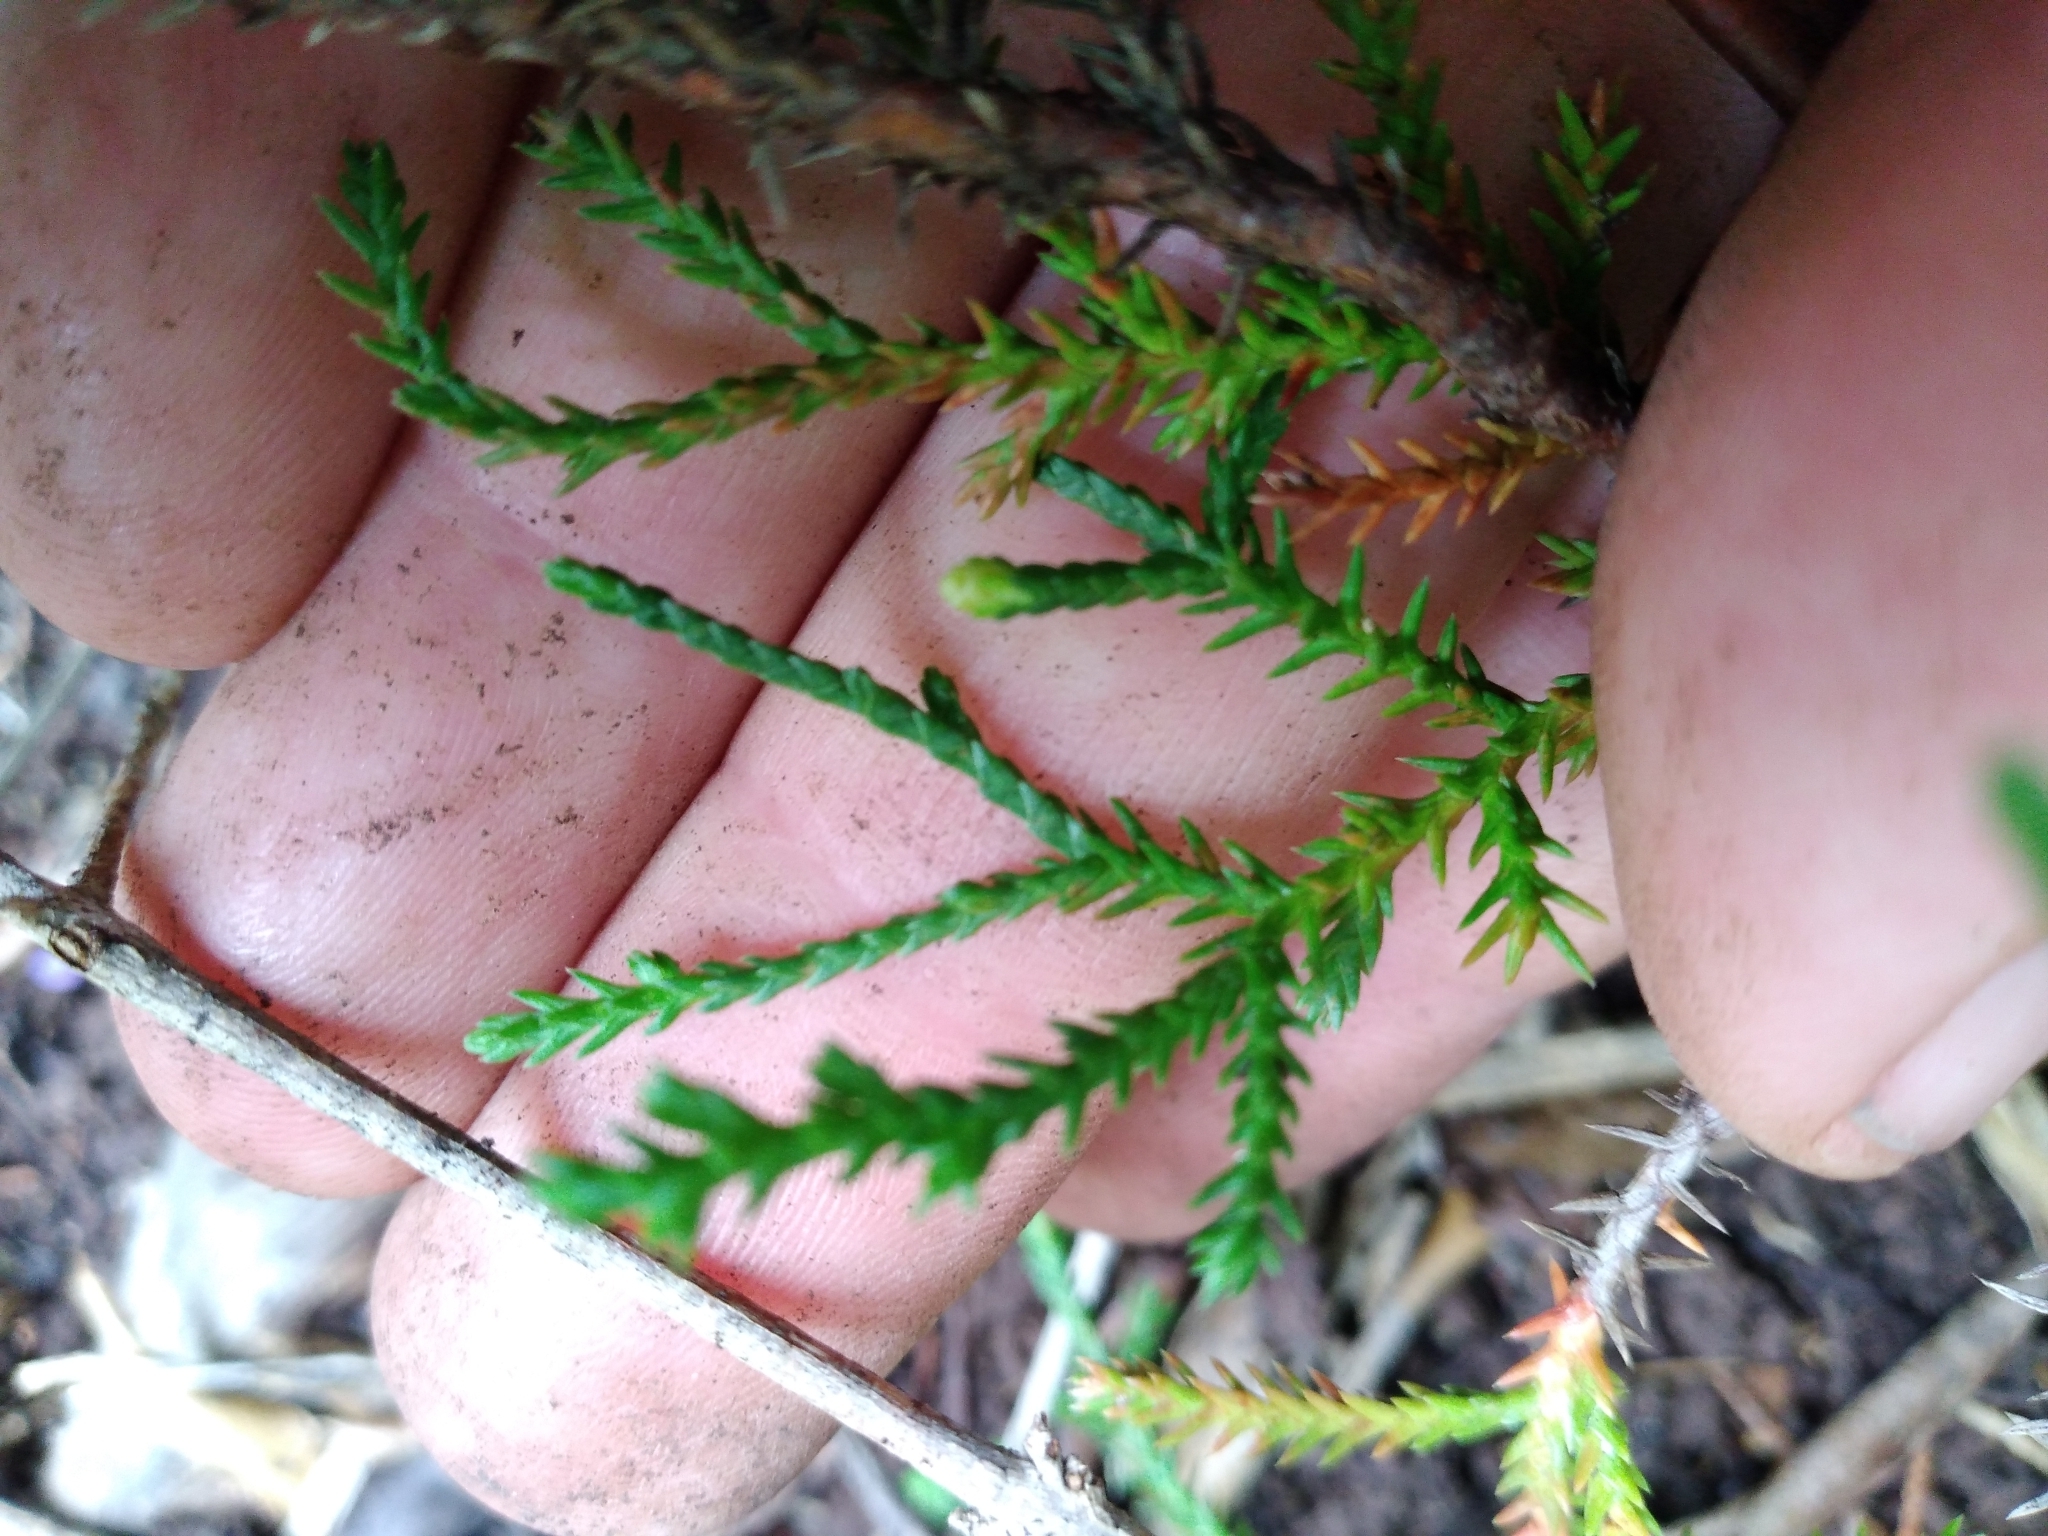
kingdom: Plantae
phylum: Tracheophyta
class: Pinopsida
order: Pinales
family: Cupressaceae
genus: Cupressus
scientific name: Cupressus macrocarpa
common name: Monterey cypress
